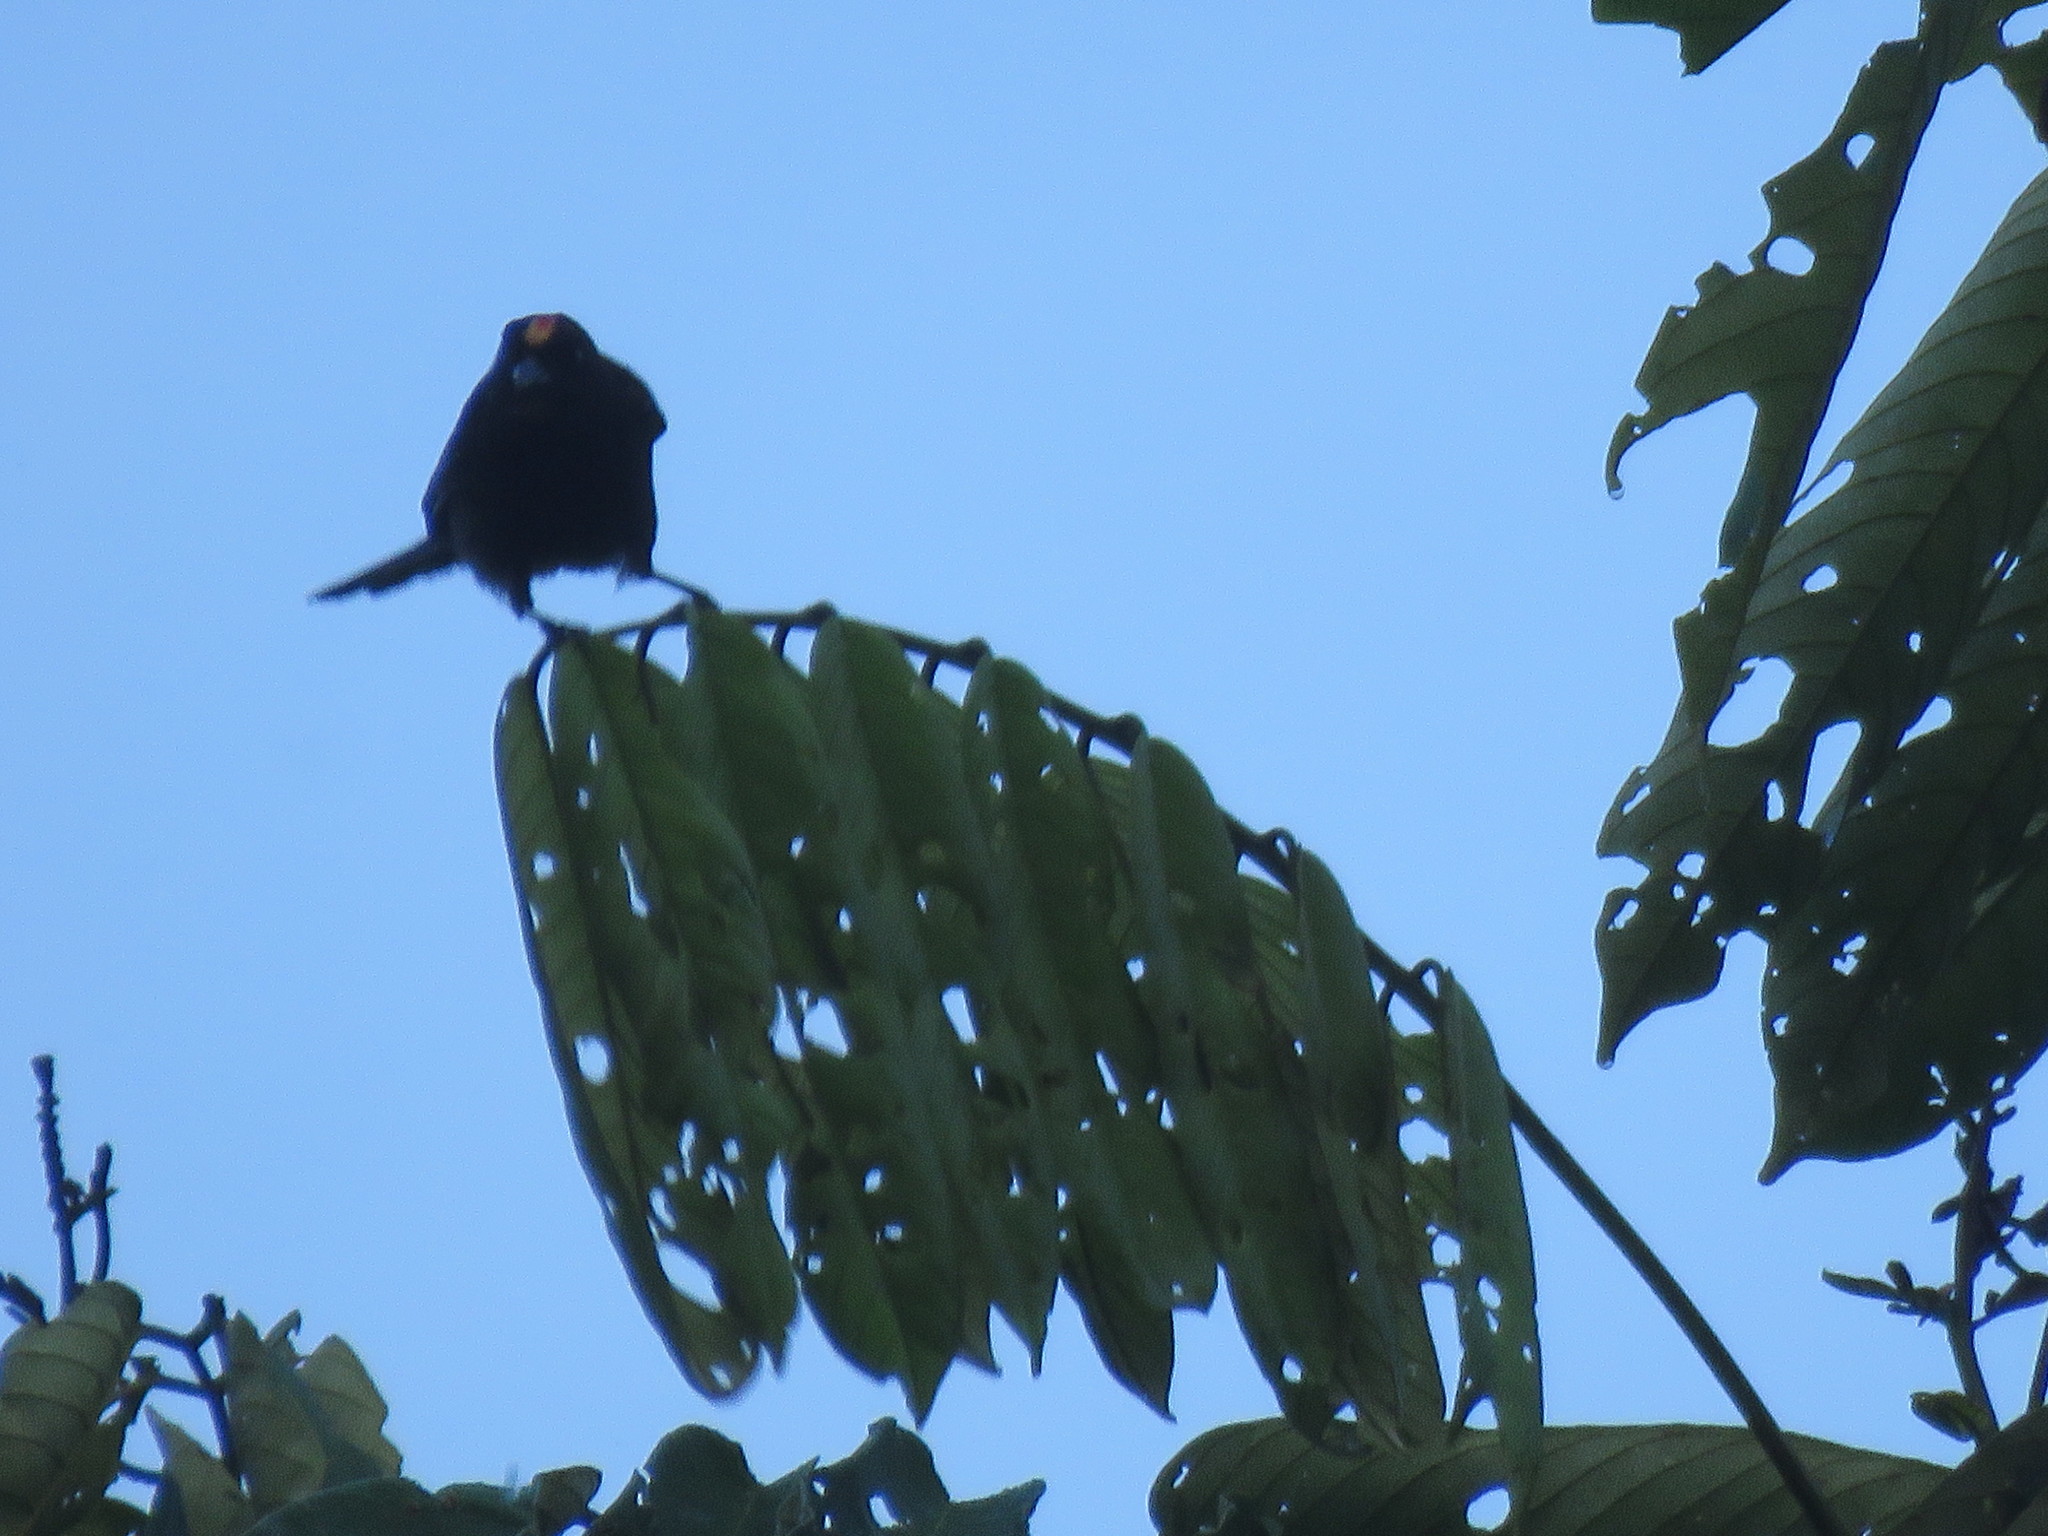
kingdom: Animalia
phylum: Chordata
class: Aves
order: Passeriformes
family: Thraupidae
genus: Loriotus
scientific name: Loriotus cristatus
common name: Flame-crested tanager
